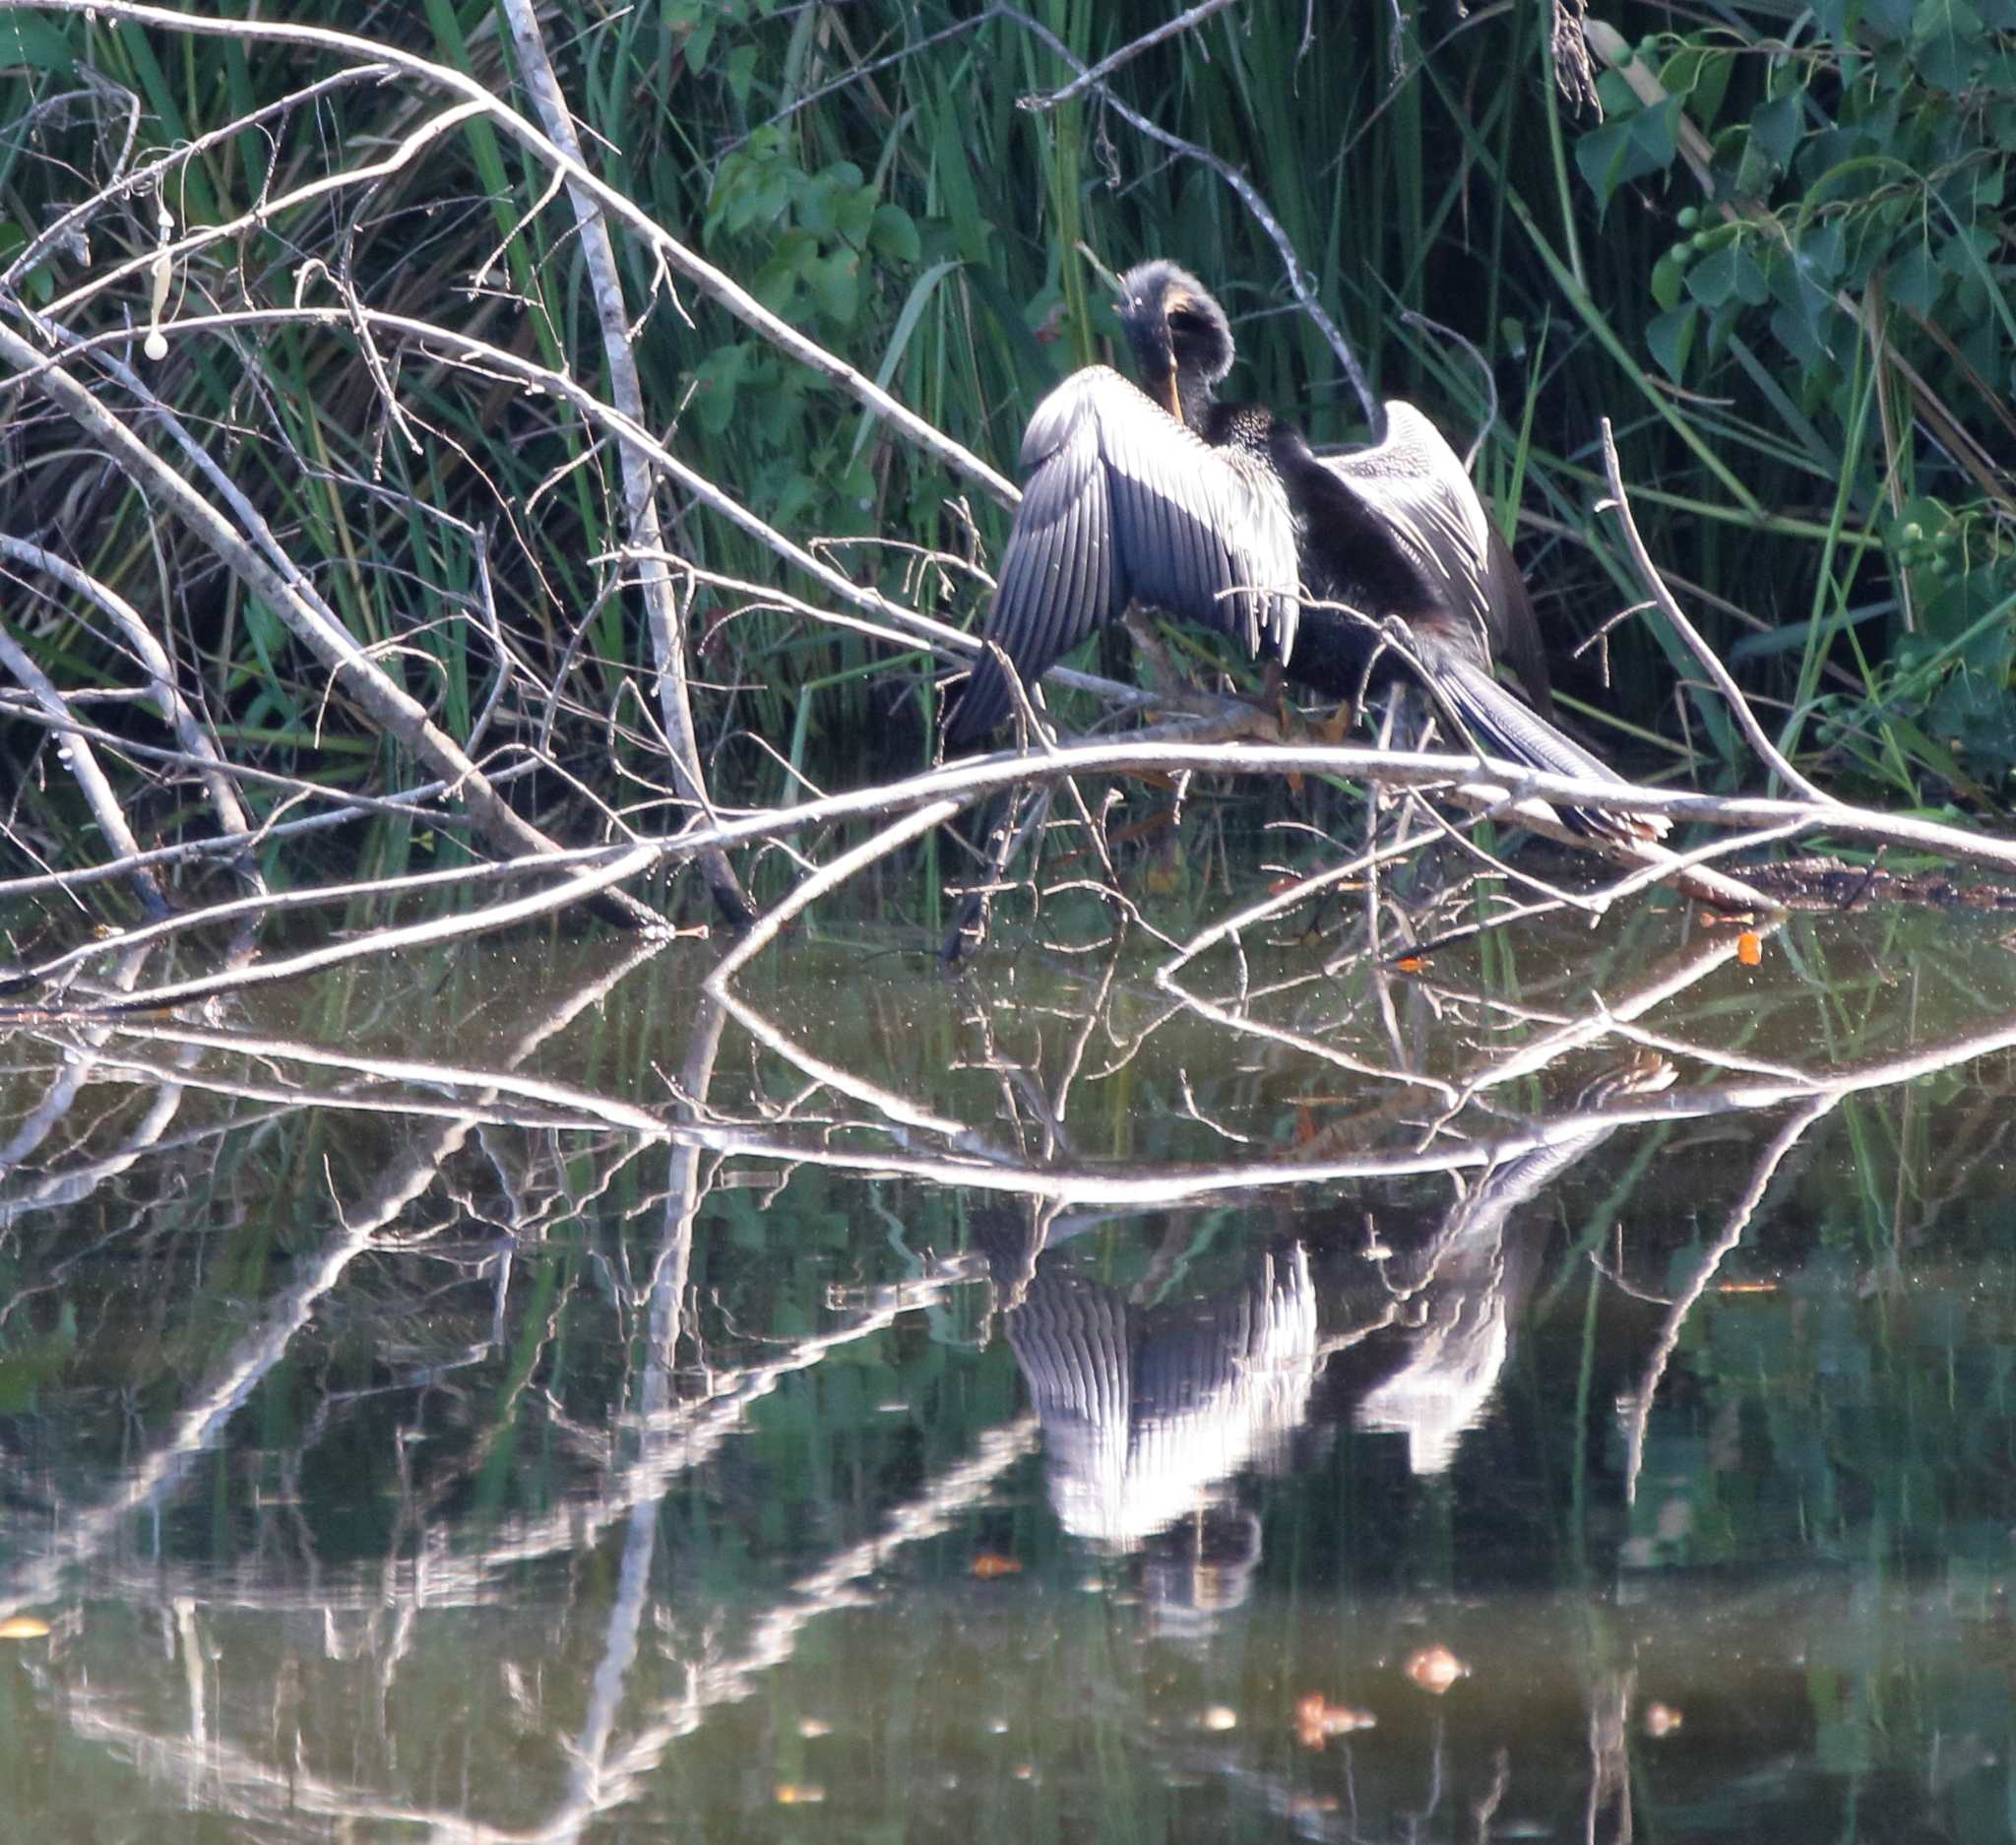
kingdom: Animalia
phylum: Chordata
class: Aves
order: Suliformes
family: Anhingidae
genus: Anhinga
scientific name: Anhinga anhinga
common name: Anhinga
